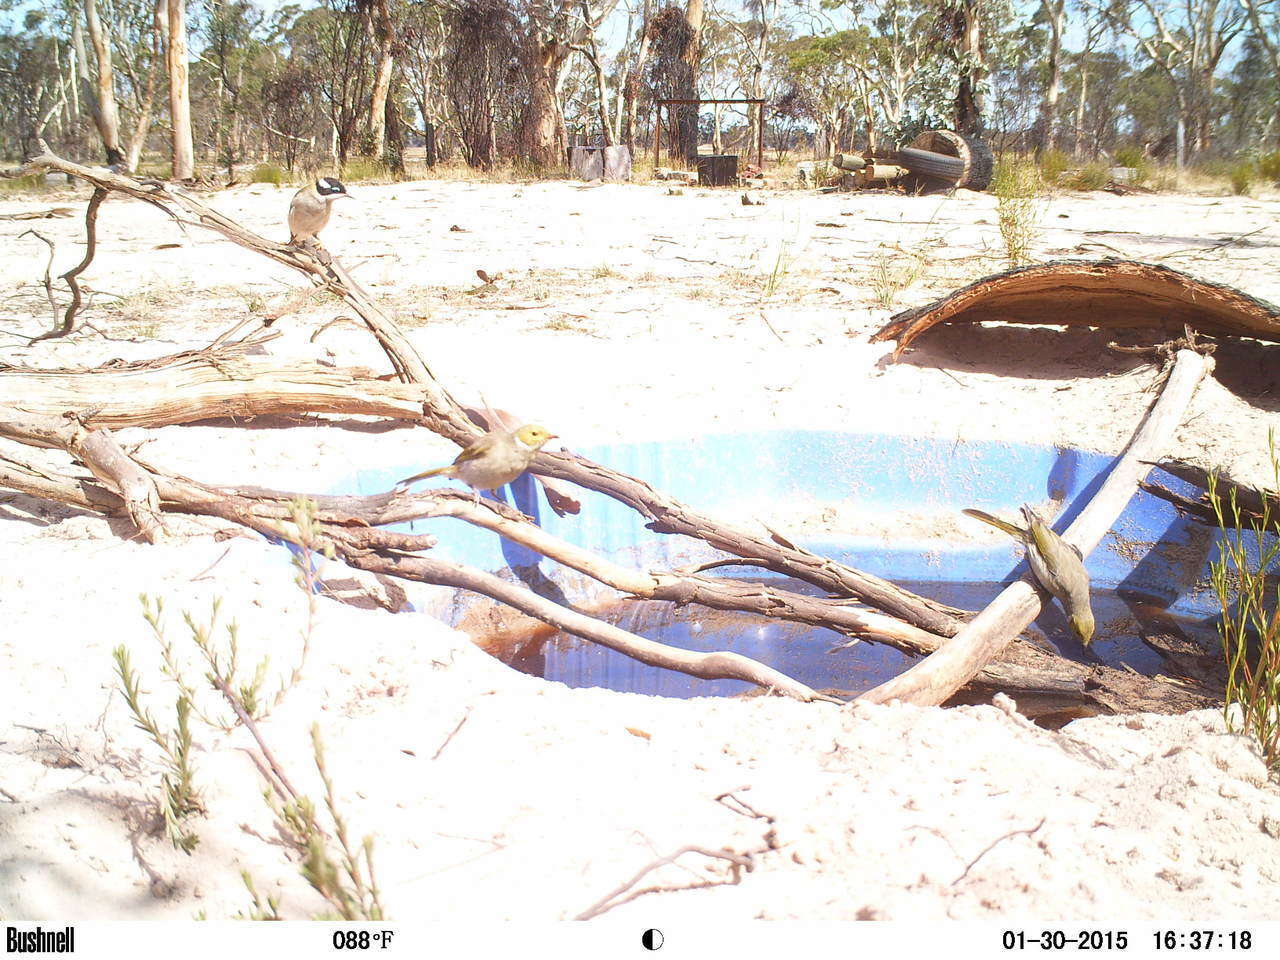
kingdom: Animalia
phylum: Chordata
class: Aves
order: Passeriformes
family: Meliphagidae
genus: Melithreptus
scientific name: Melithreptus gularis
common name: Black-chinned honeyeater
